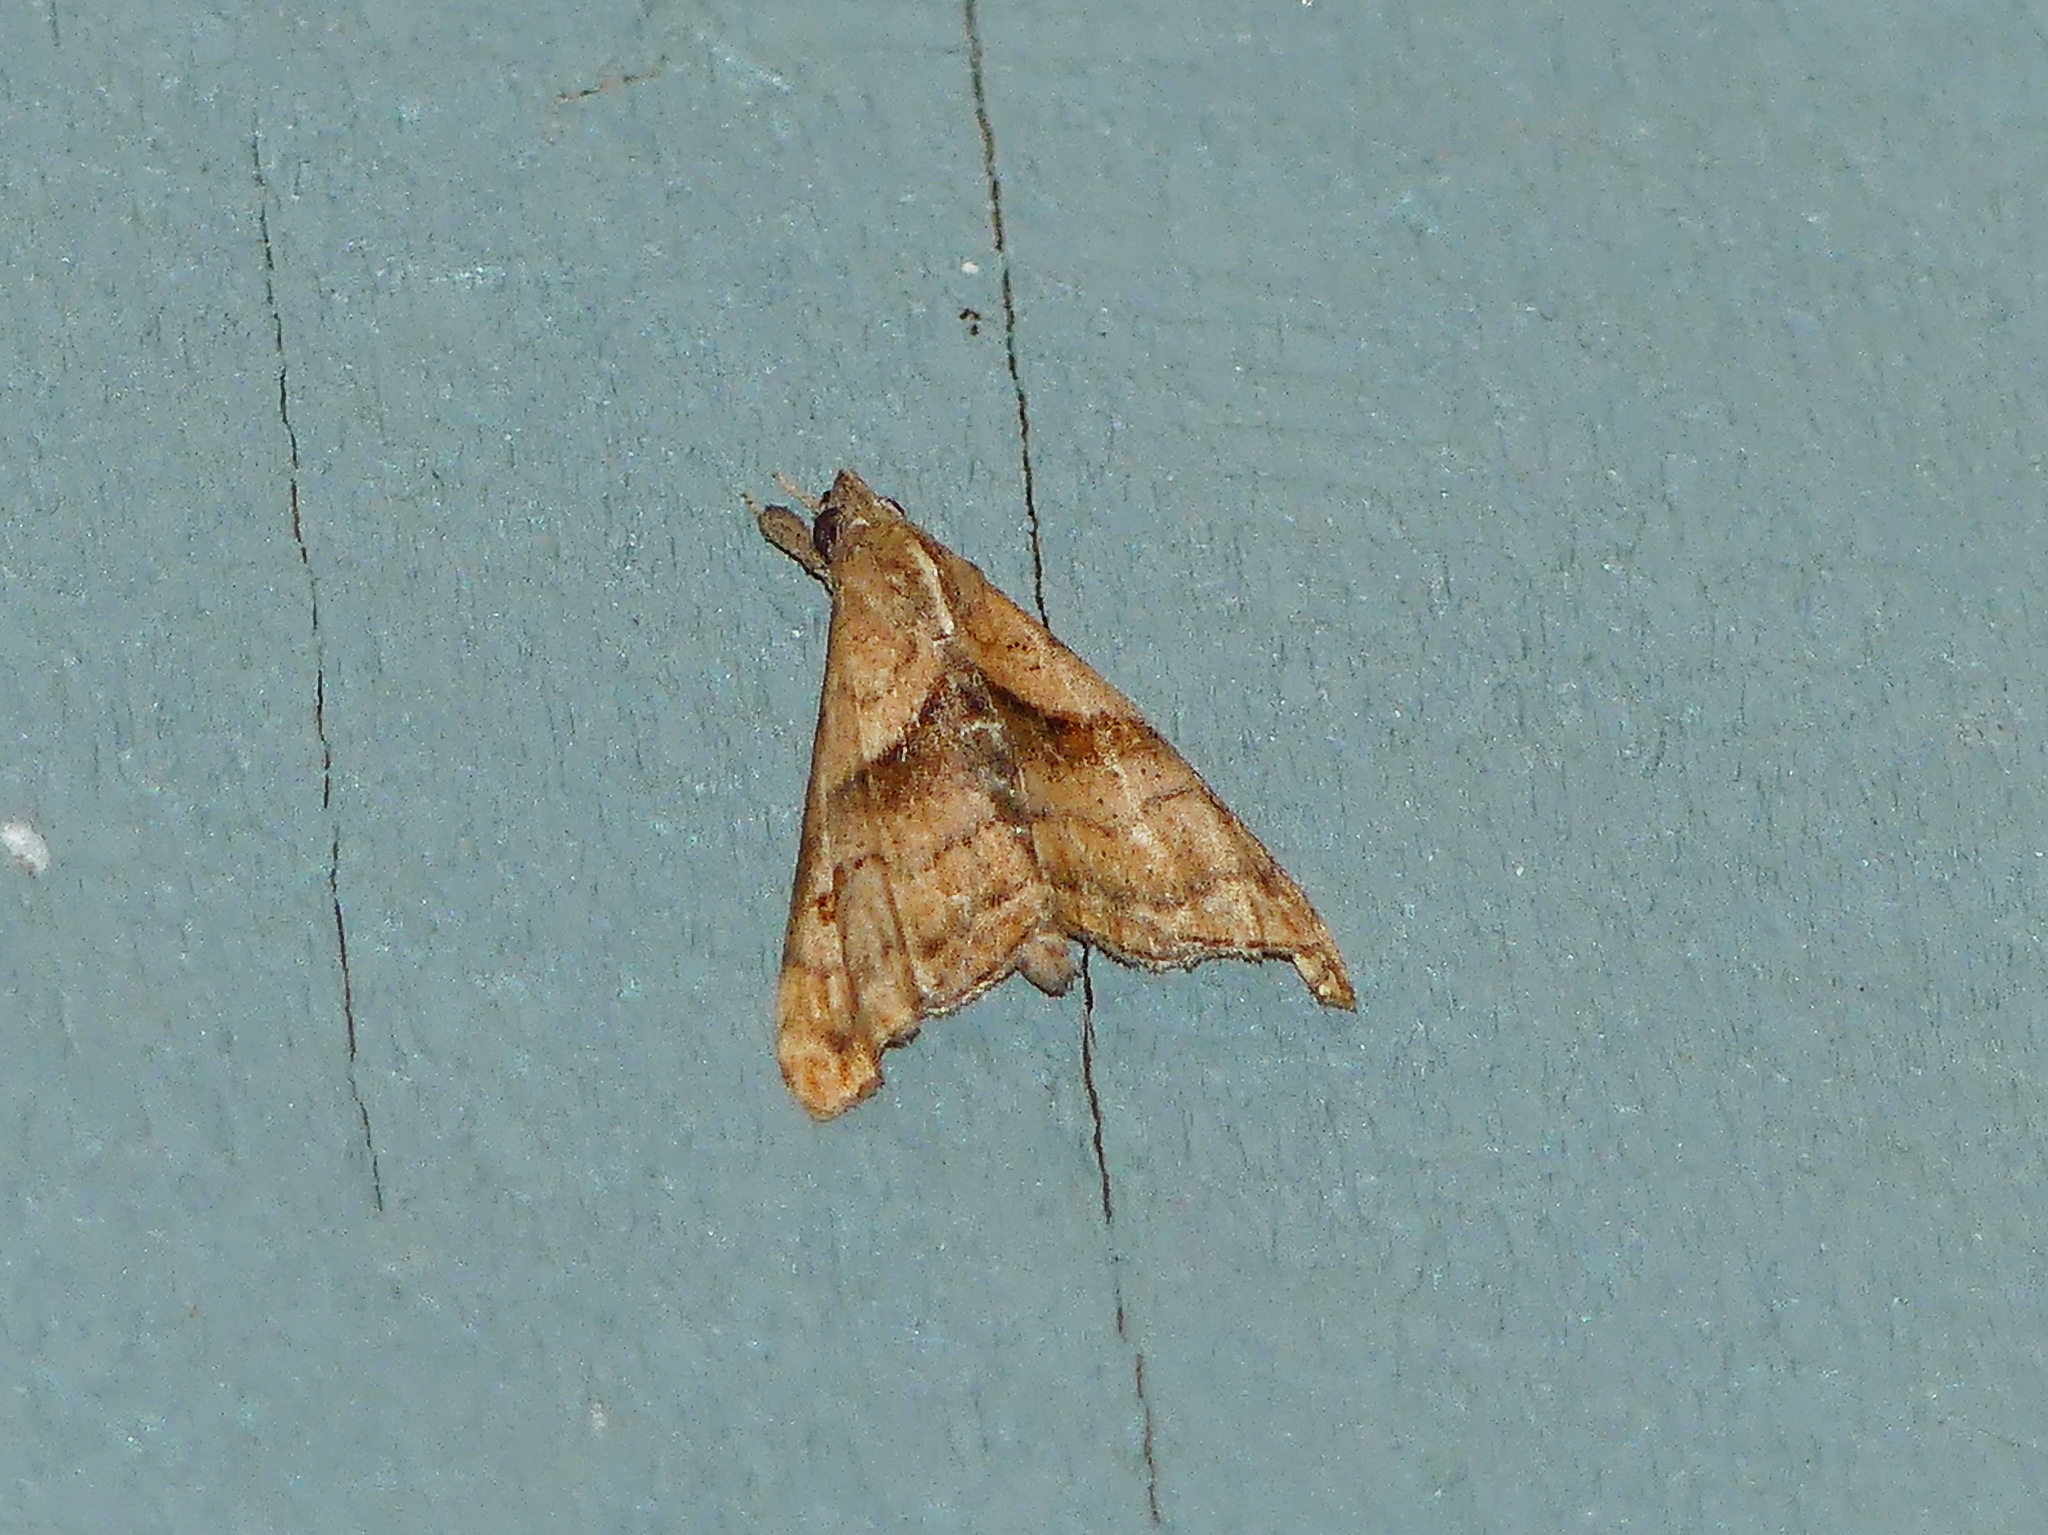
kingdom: Animalia
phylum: Arthropoda
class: Insecta
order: Lepidoptera
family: Erebidae
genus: Palthis
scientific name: Palthis angulalis
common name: Dark-spotted palthis moth
